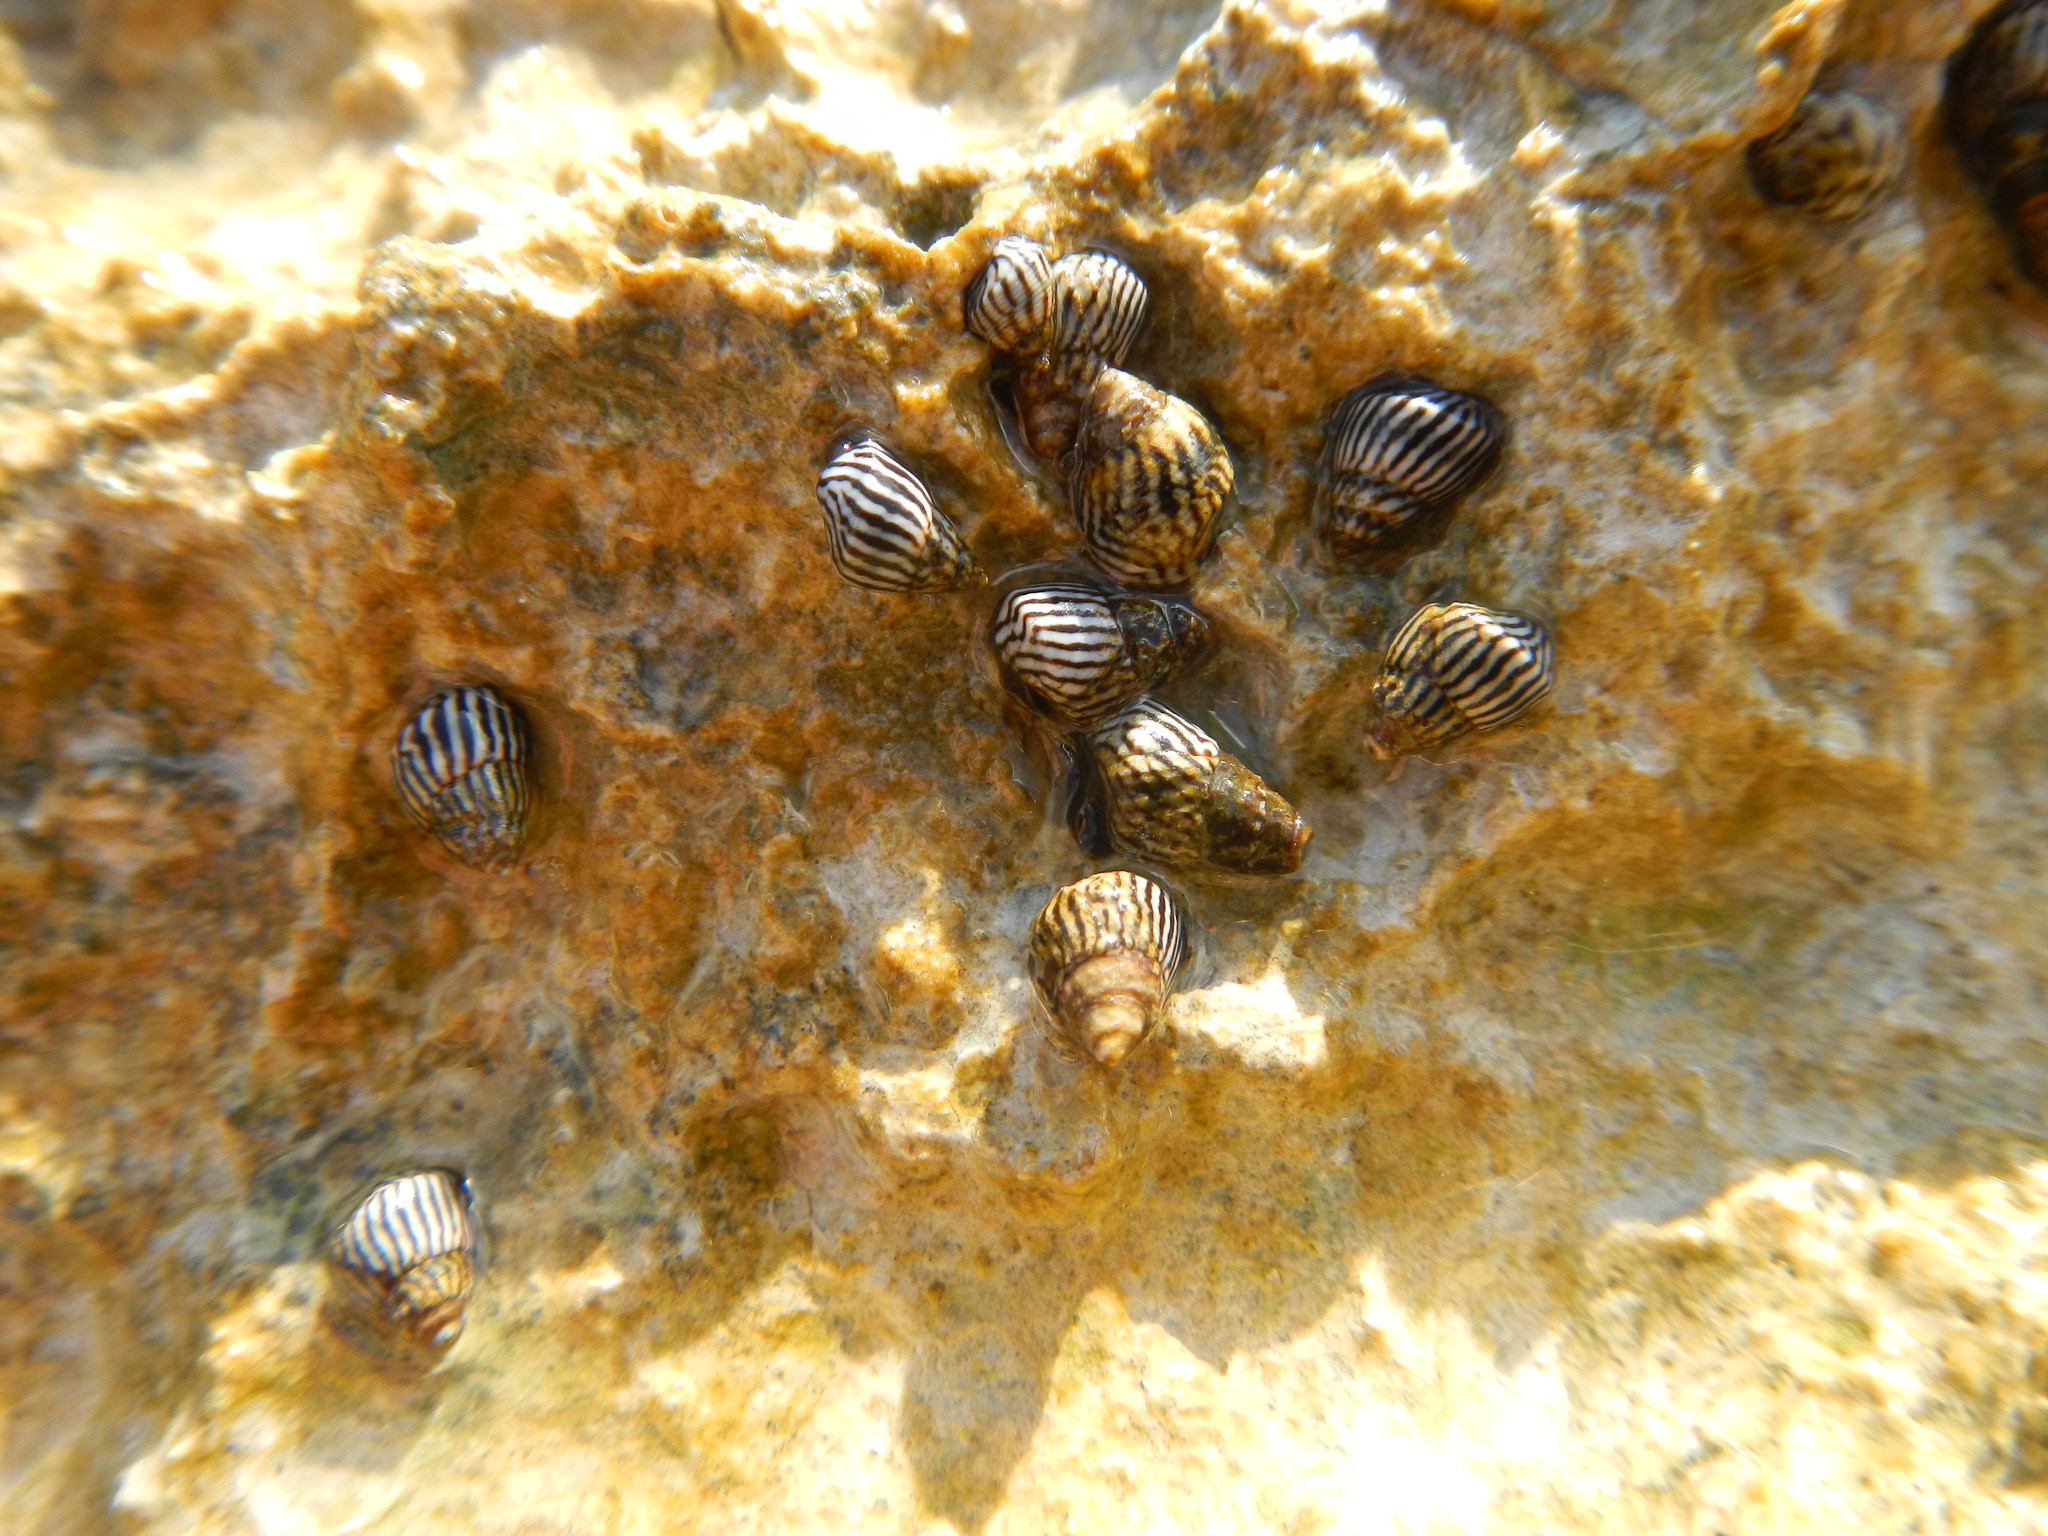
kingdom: Animalia
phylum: Mollusca
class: Gastropoda
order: Littorinimorpha
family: Littorinidae
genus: Echinolittorina
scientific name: Echinolittorina ziczac
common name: Zebra periwinkle
